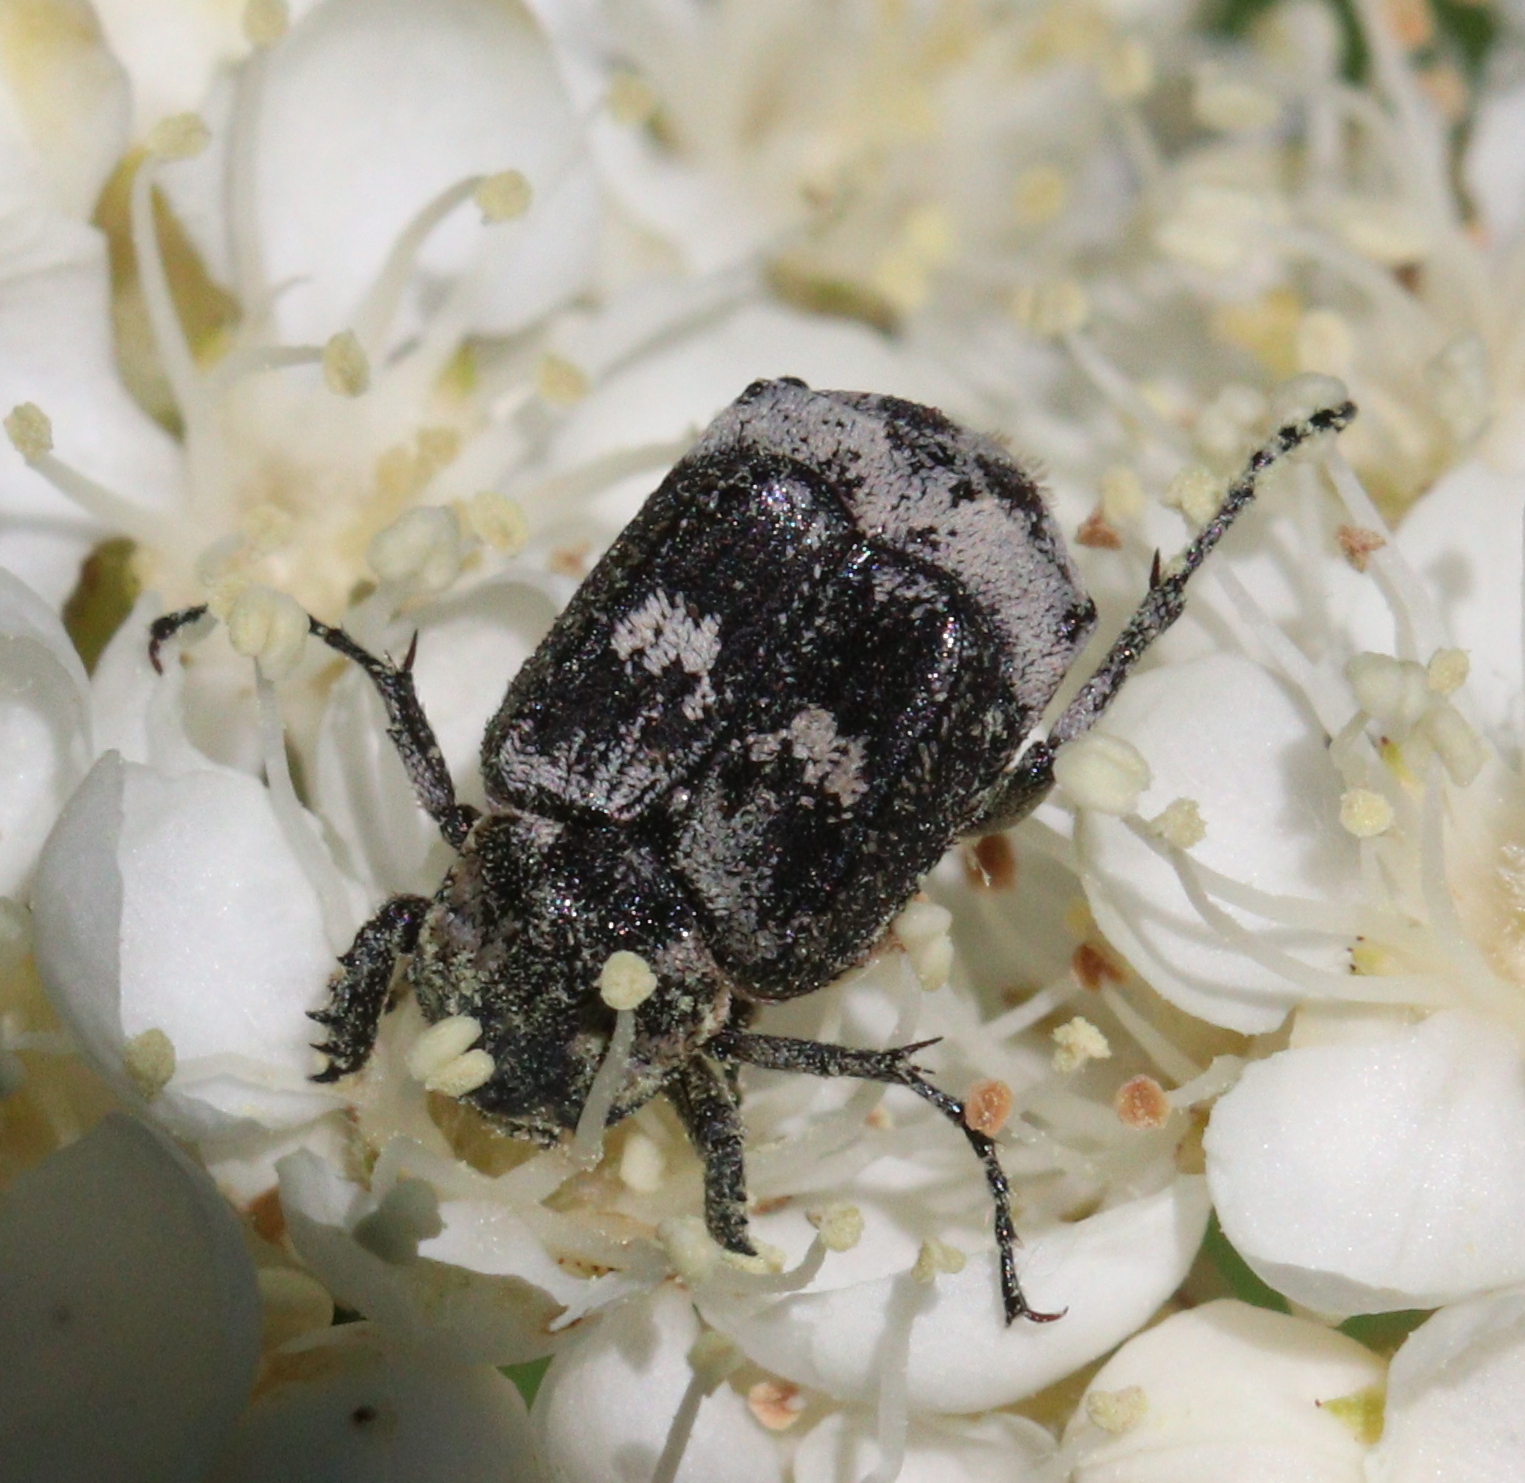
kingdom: Animalia
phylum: Arthropoda
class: Insecta
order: Coleoptera
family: Scarabaeidae
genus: Valgus
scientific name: Valgus hemipterus
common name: Bug flower chafer
